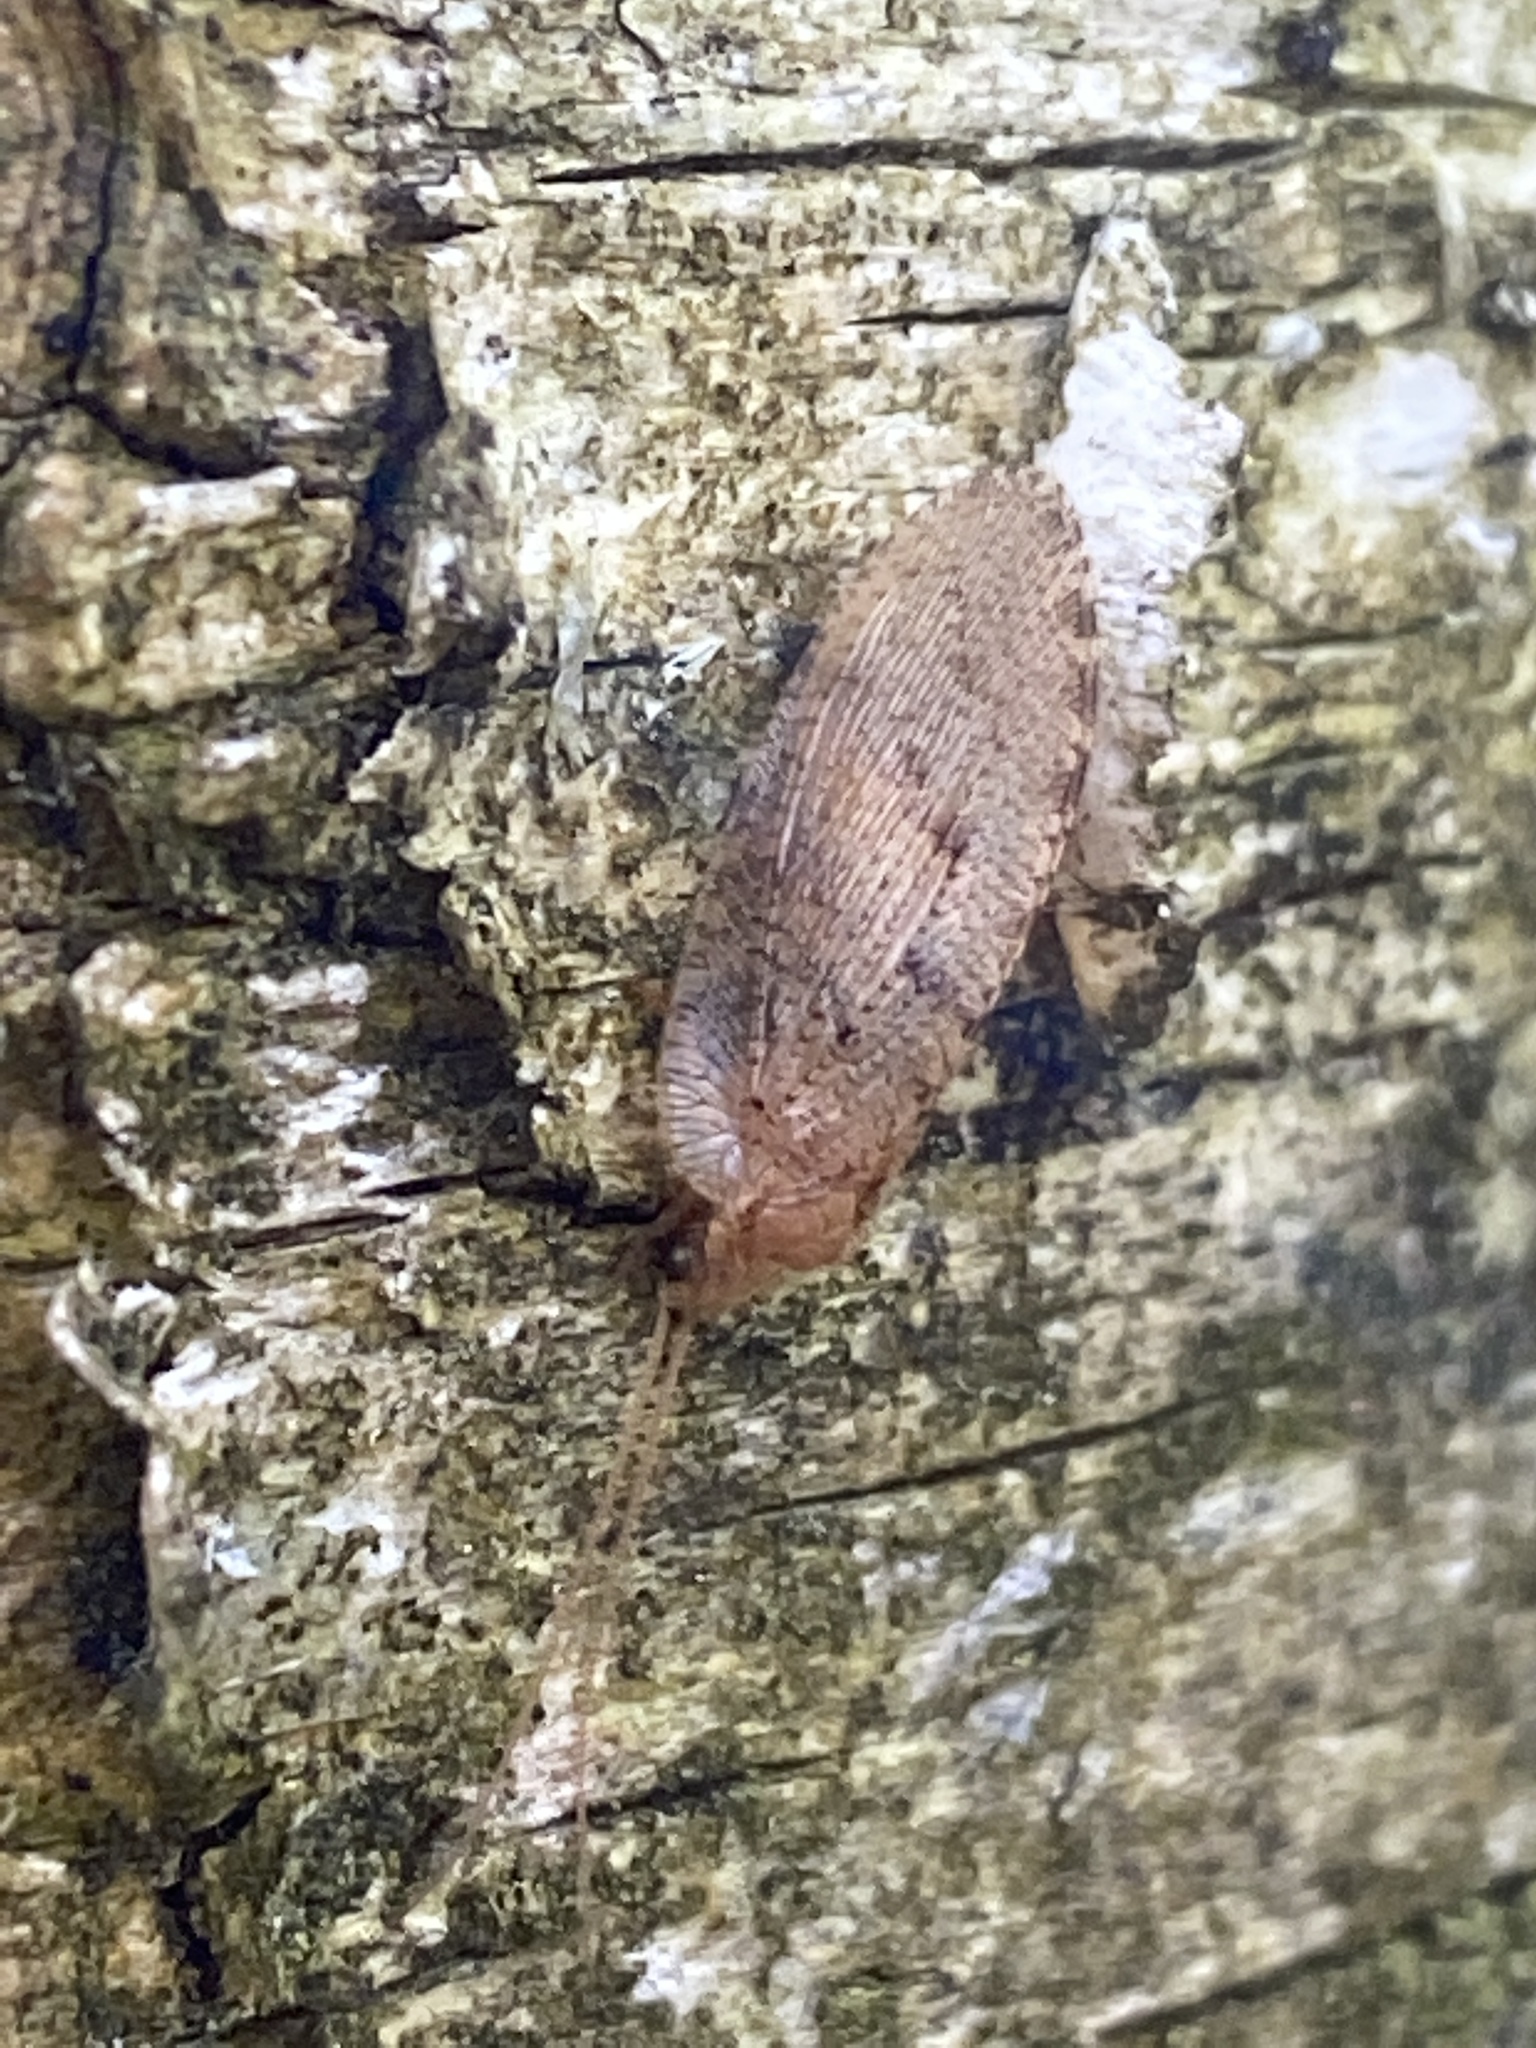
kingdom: Animalia
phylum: Arthropoda
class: Insecta
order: Neuroptera
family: Hemerobiidae
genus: Wesmaelius
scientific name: Wesmaelius concinnus
